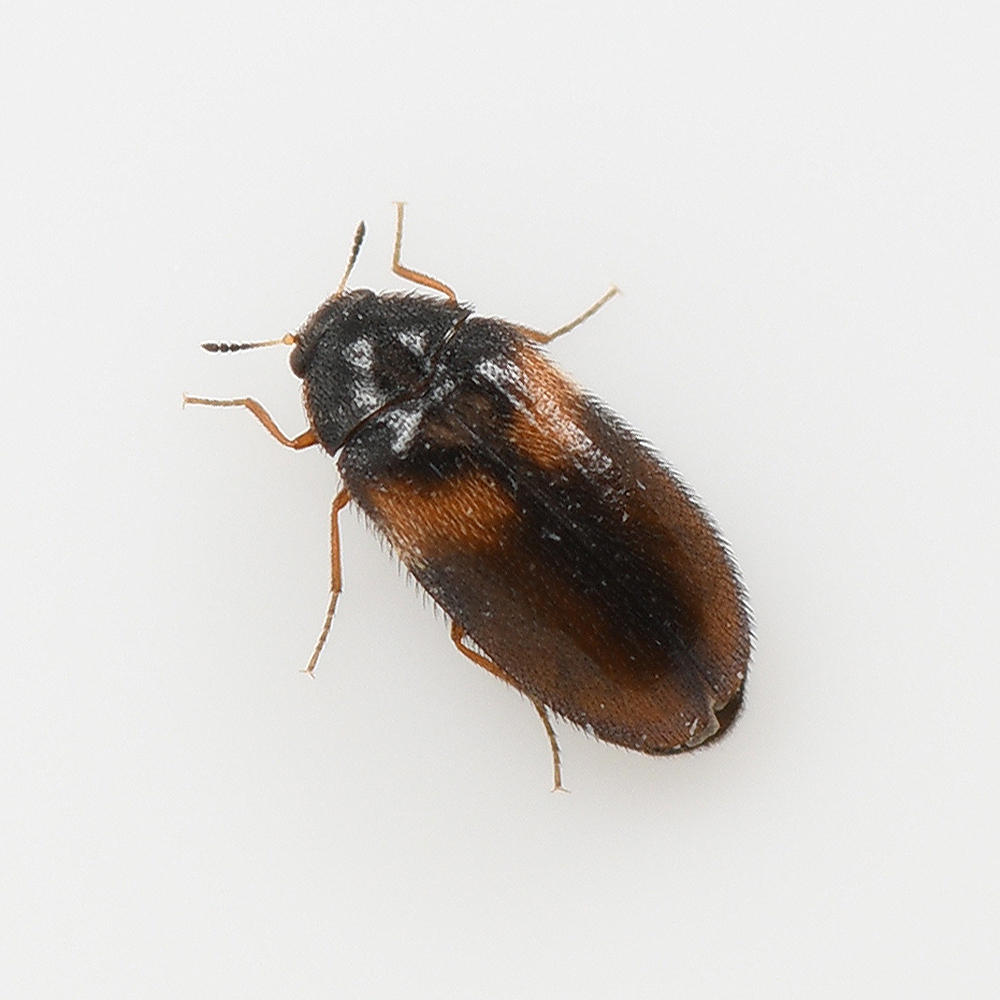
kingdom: Animalia
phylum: Arthropoda
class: Insecta
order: Coleoptera
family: Dermestidae
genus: Reesa
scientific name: Reesa vespulae
